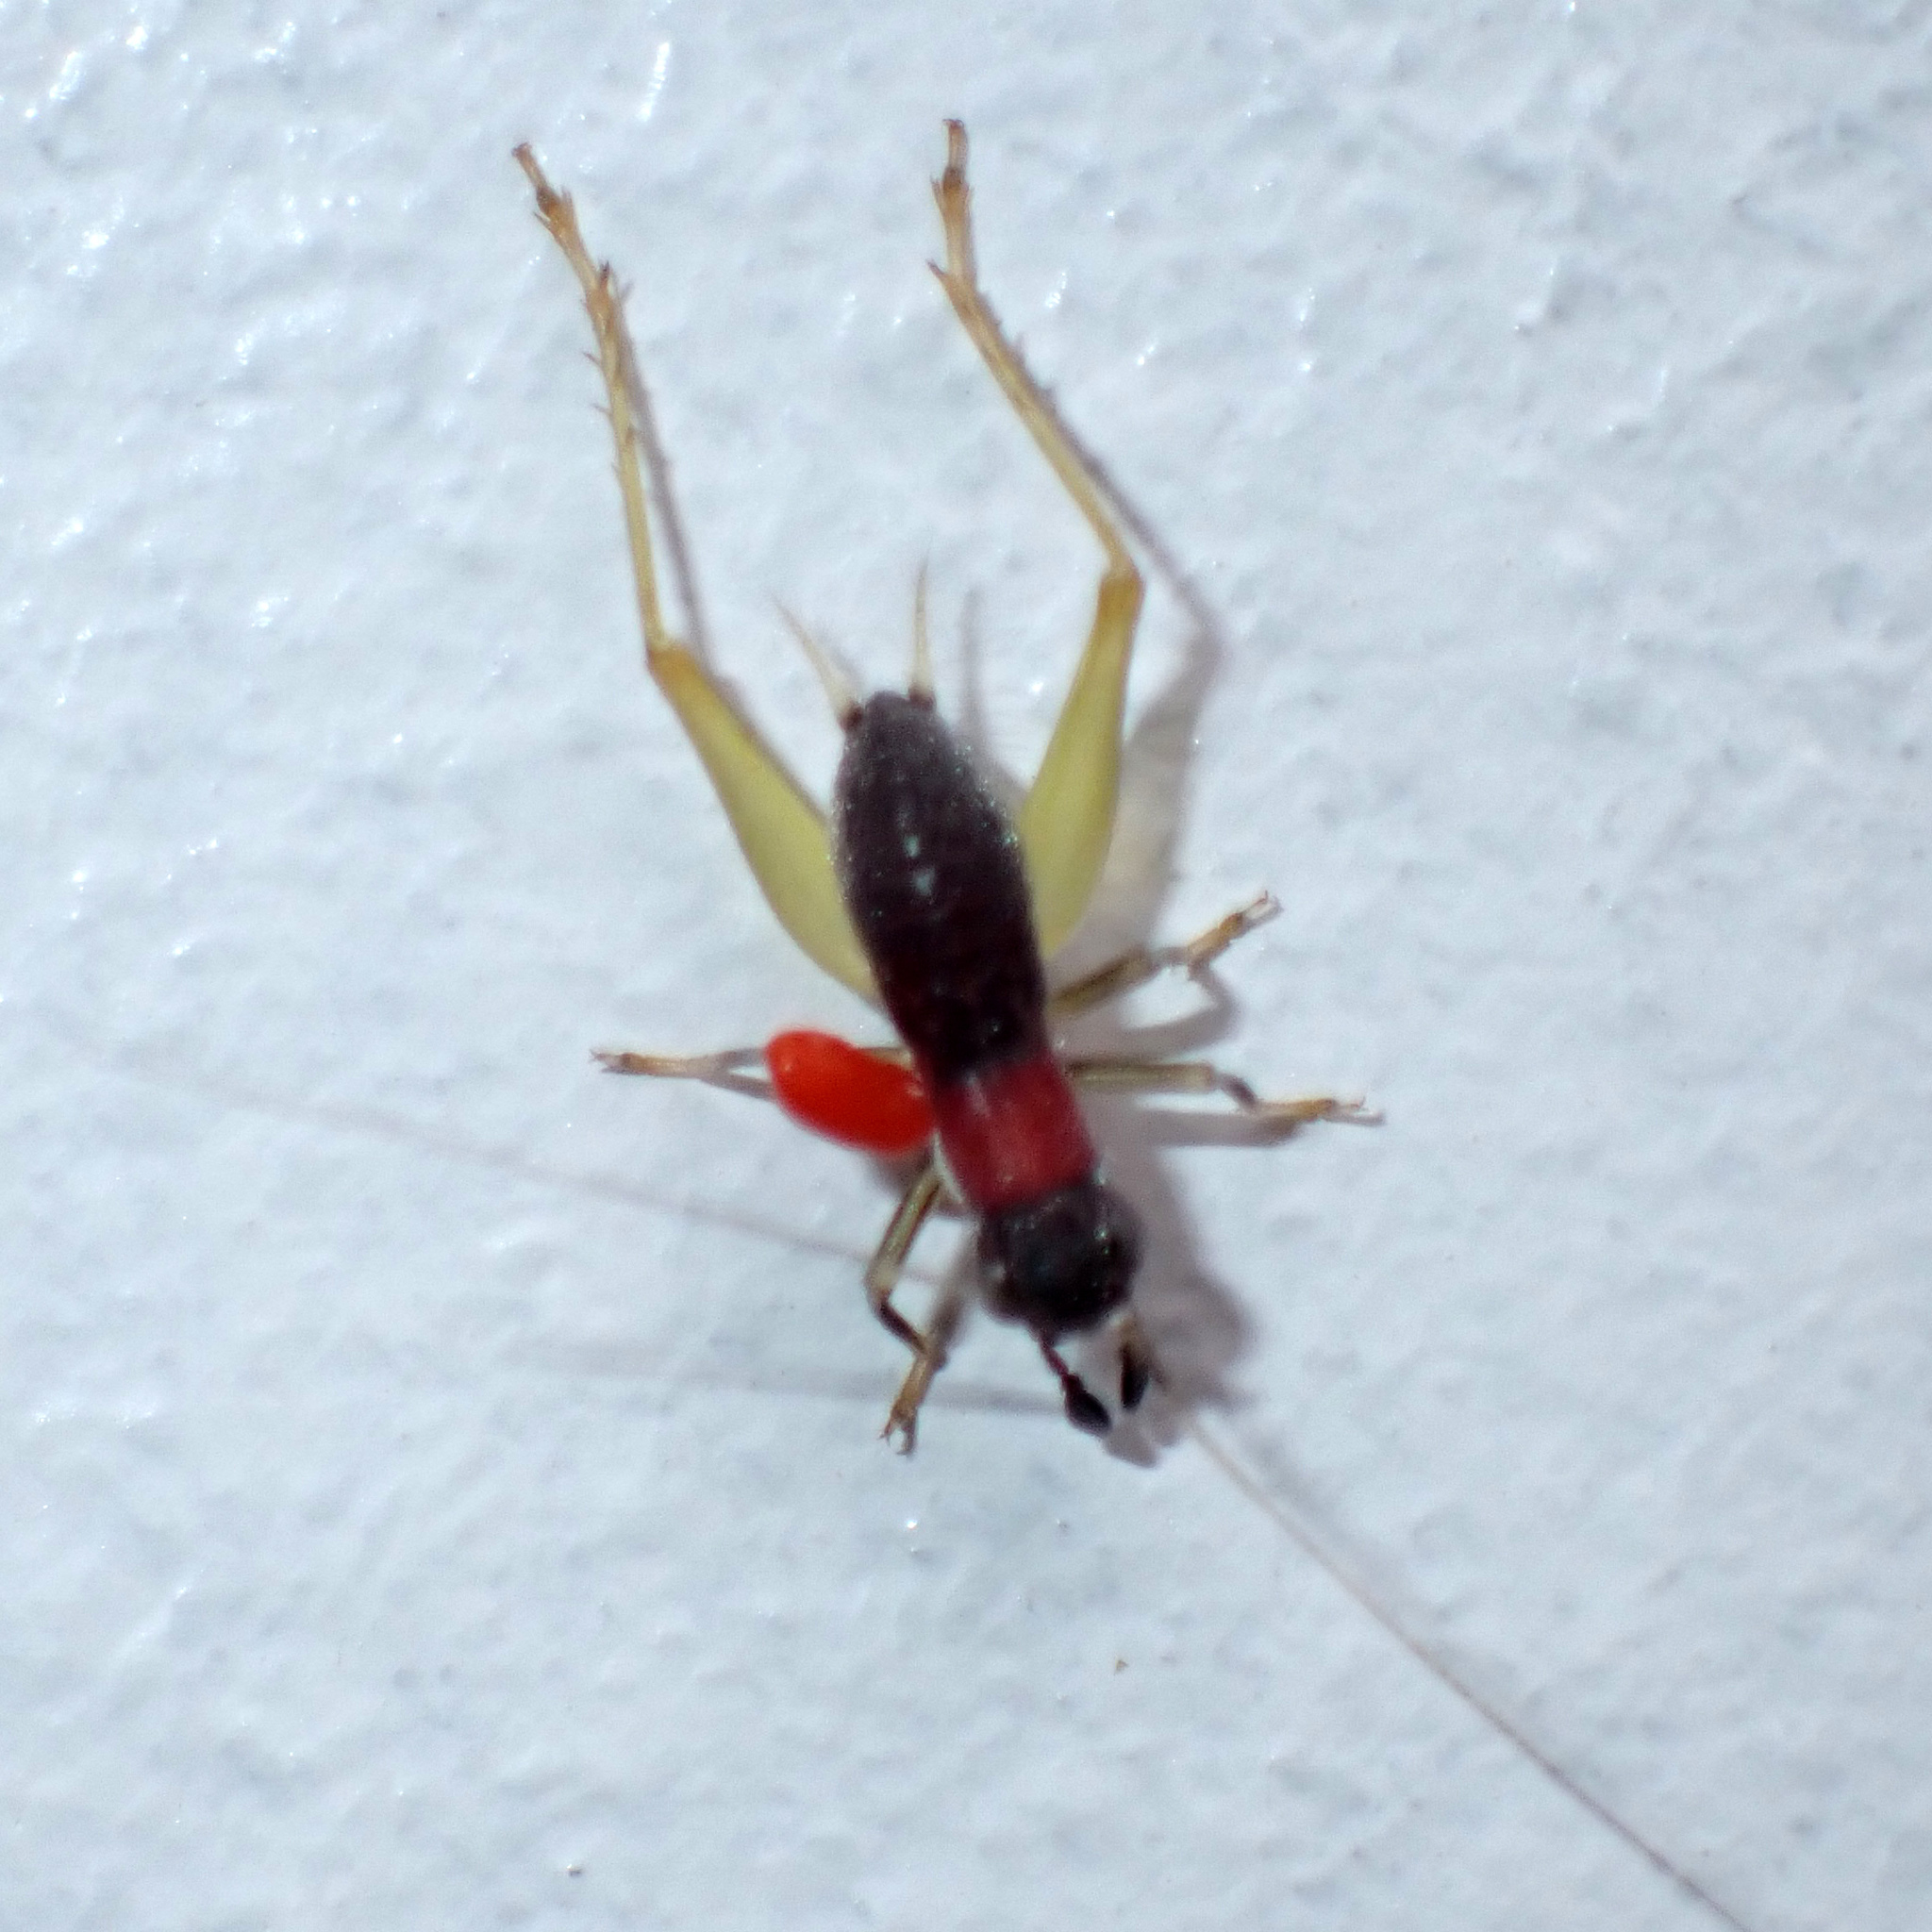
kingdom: Animalia
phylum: Arthropoda
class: Insecta
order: Orthoptera
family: Trigonidiidae
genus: Phyllopalpus
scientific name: Phyllopalpus pulchellus
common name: Handsome trig
